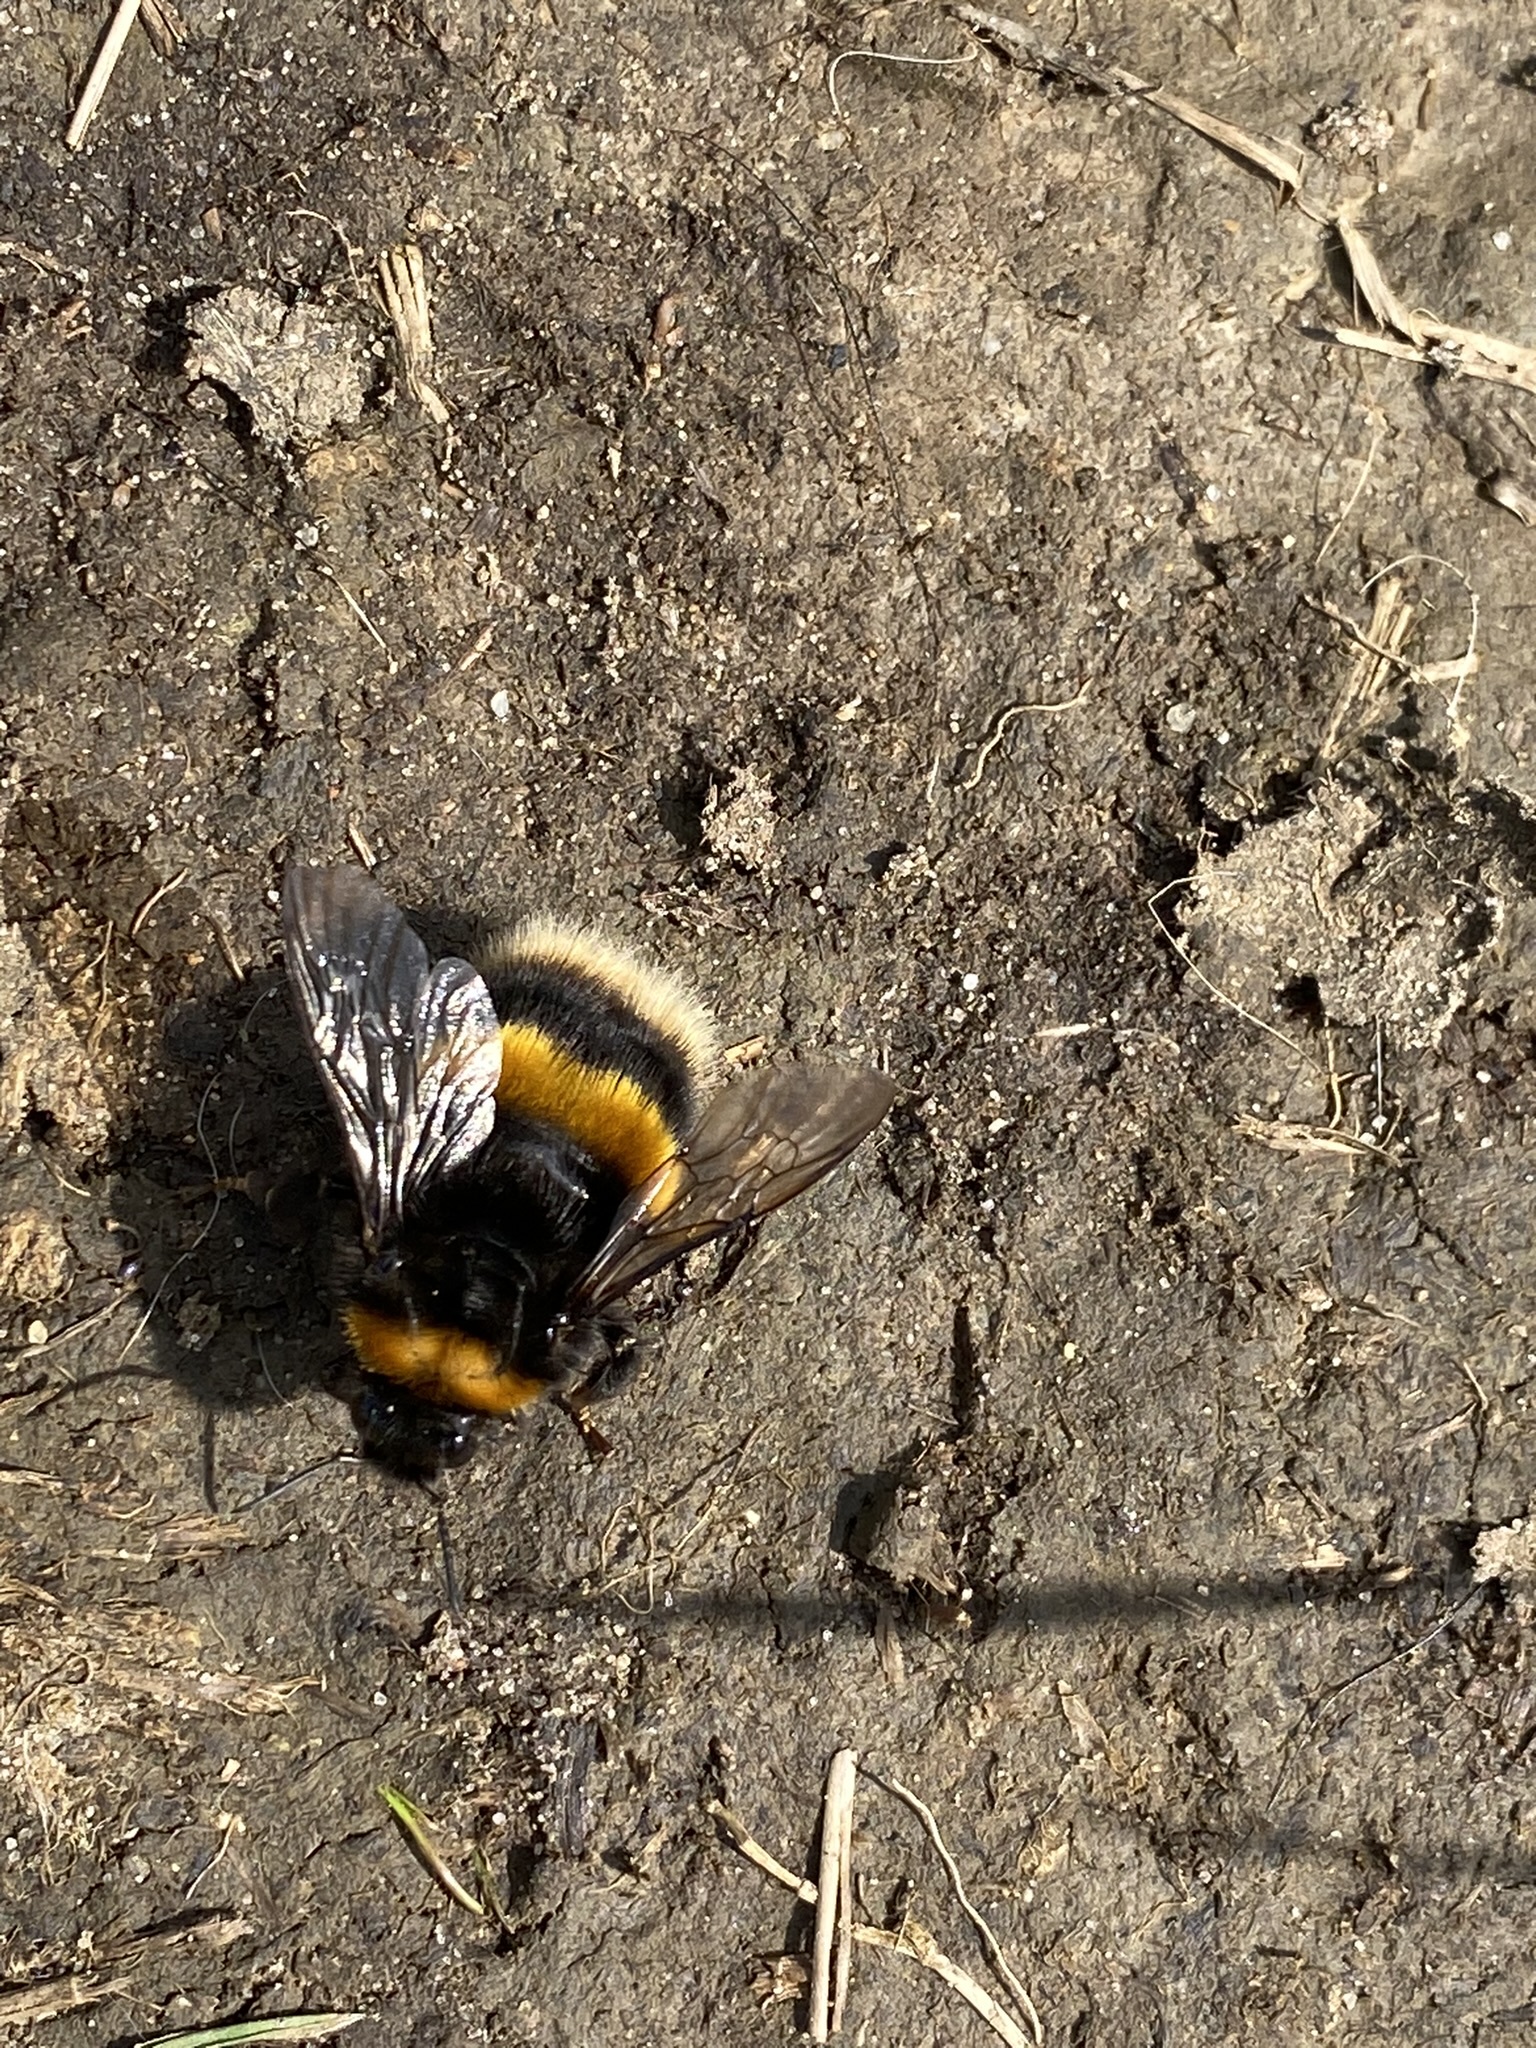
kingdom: Animalia
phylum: Arthropoda
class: Insecta
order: Hymenoptera
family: Apidae
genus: Bombus
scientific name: Bombus terrestris
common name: Buff-tailed bumblebee
